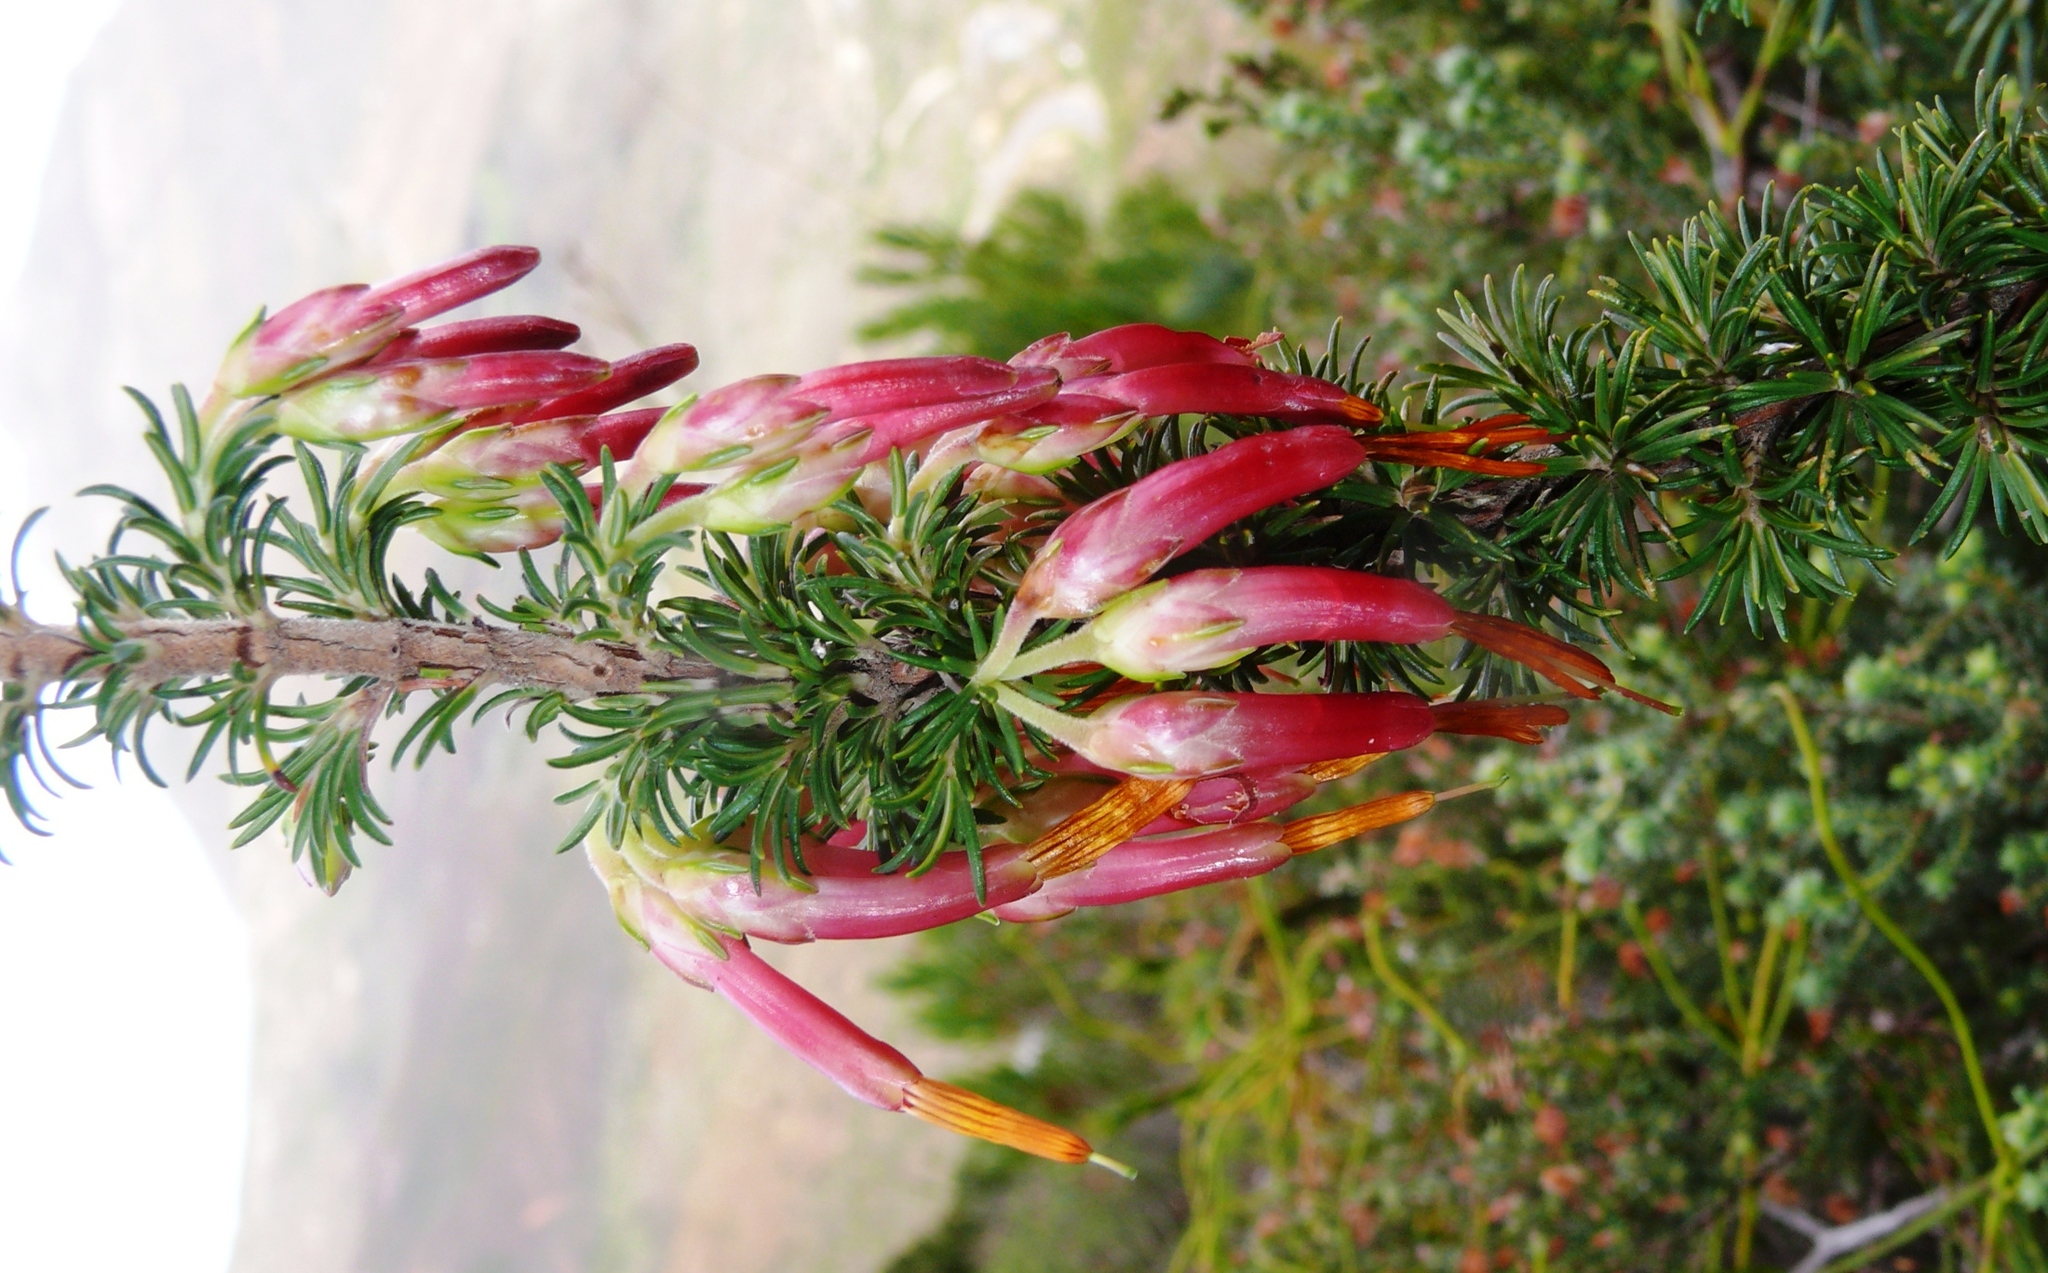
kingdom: Plantae
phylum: Tracheophyta
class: Magnoliopsida
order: Ericales
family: Ericaceae
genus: Erica
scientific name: Erica coccinea
